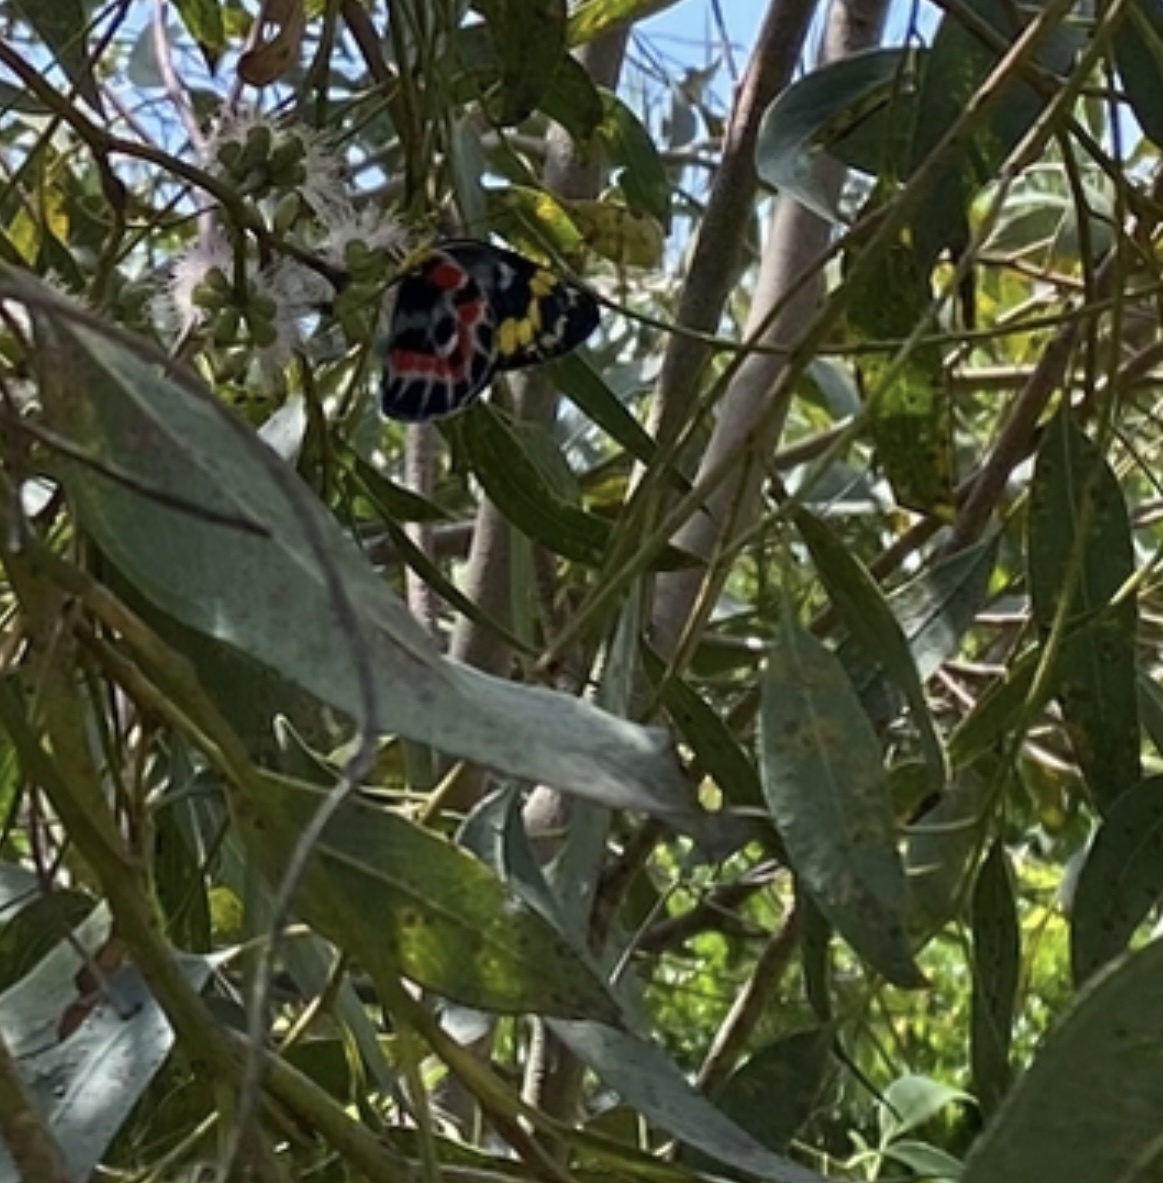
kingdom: Animalia
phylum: Arthropoda
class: Insecta
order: Lepidoptera
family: Pieridae
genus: Delias
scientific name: Delias harpalyce
